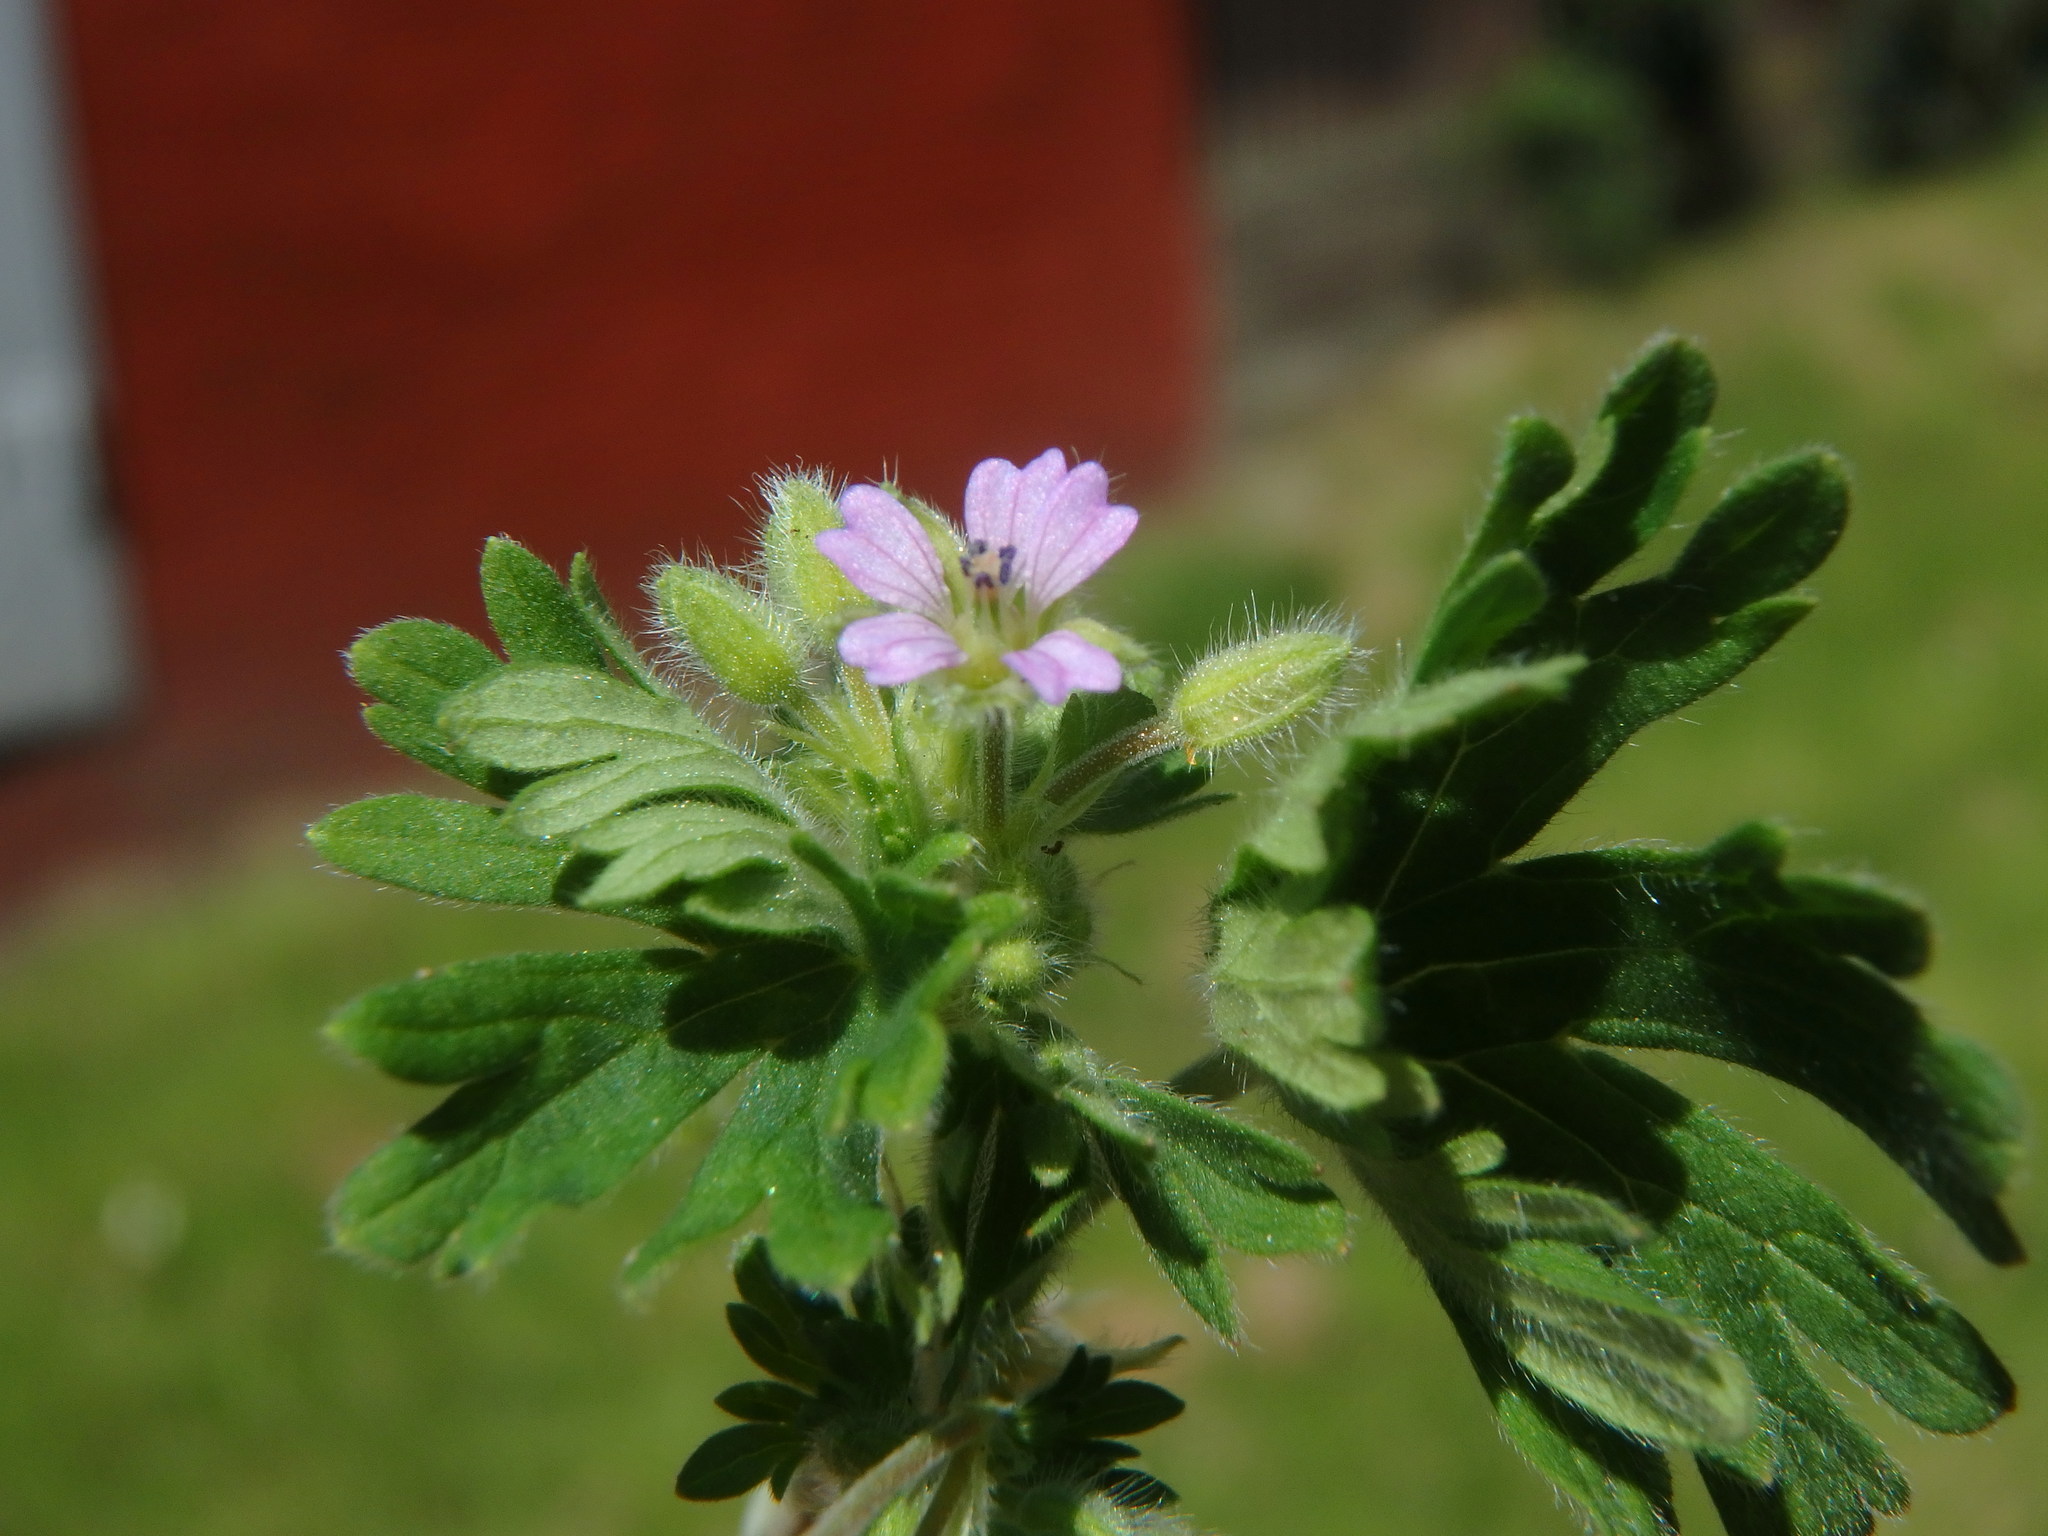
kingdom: Plantae
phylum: Tracheophyta
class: Magnoliopsida
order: Geraniales
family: Geraniaceae
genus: Geranium
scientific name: Geranium pusillum
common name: Small geranium
